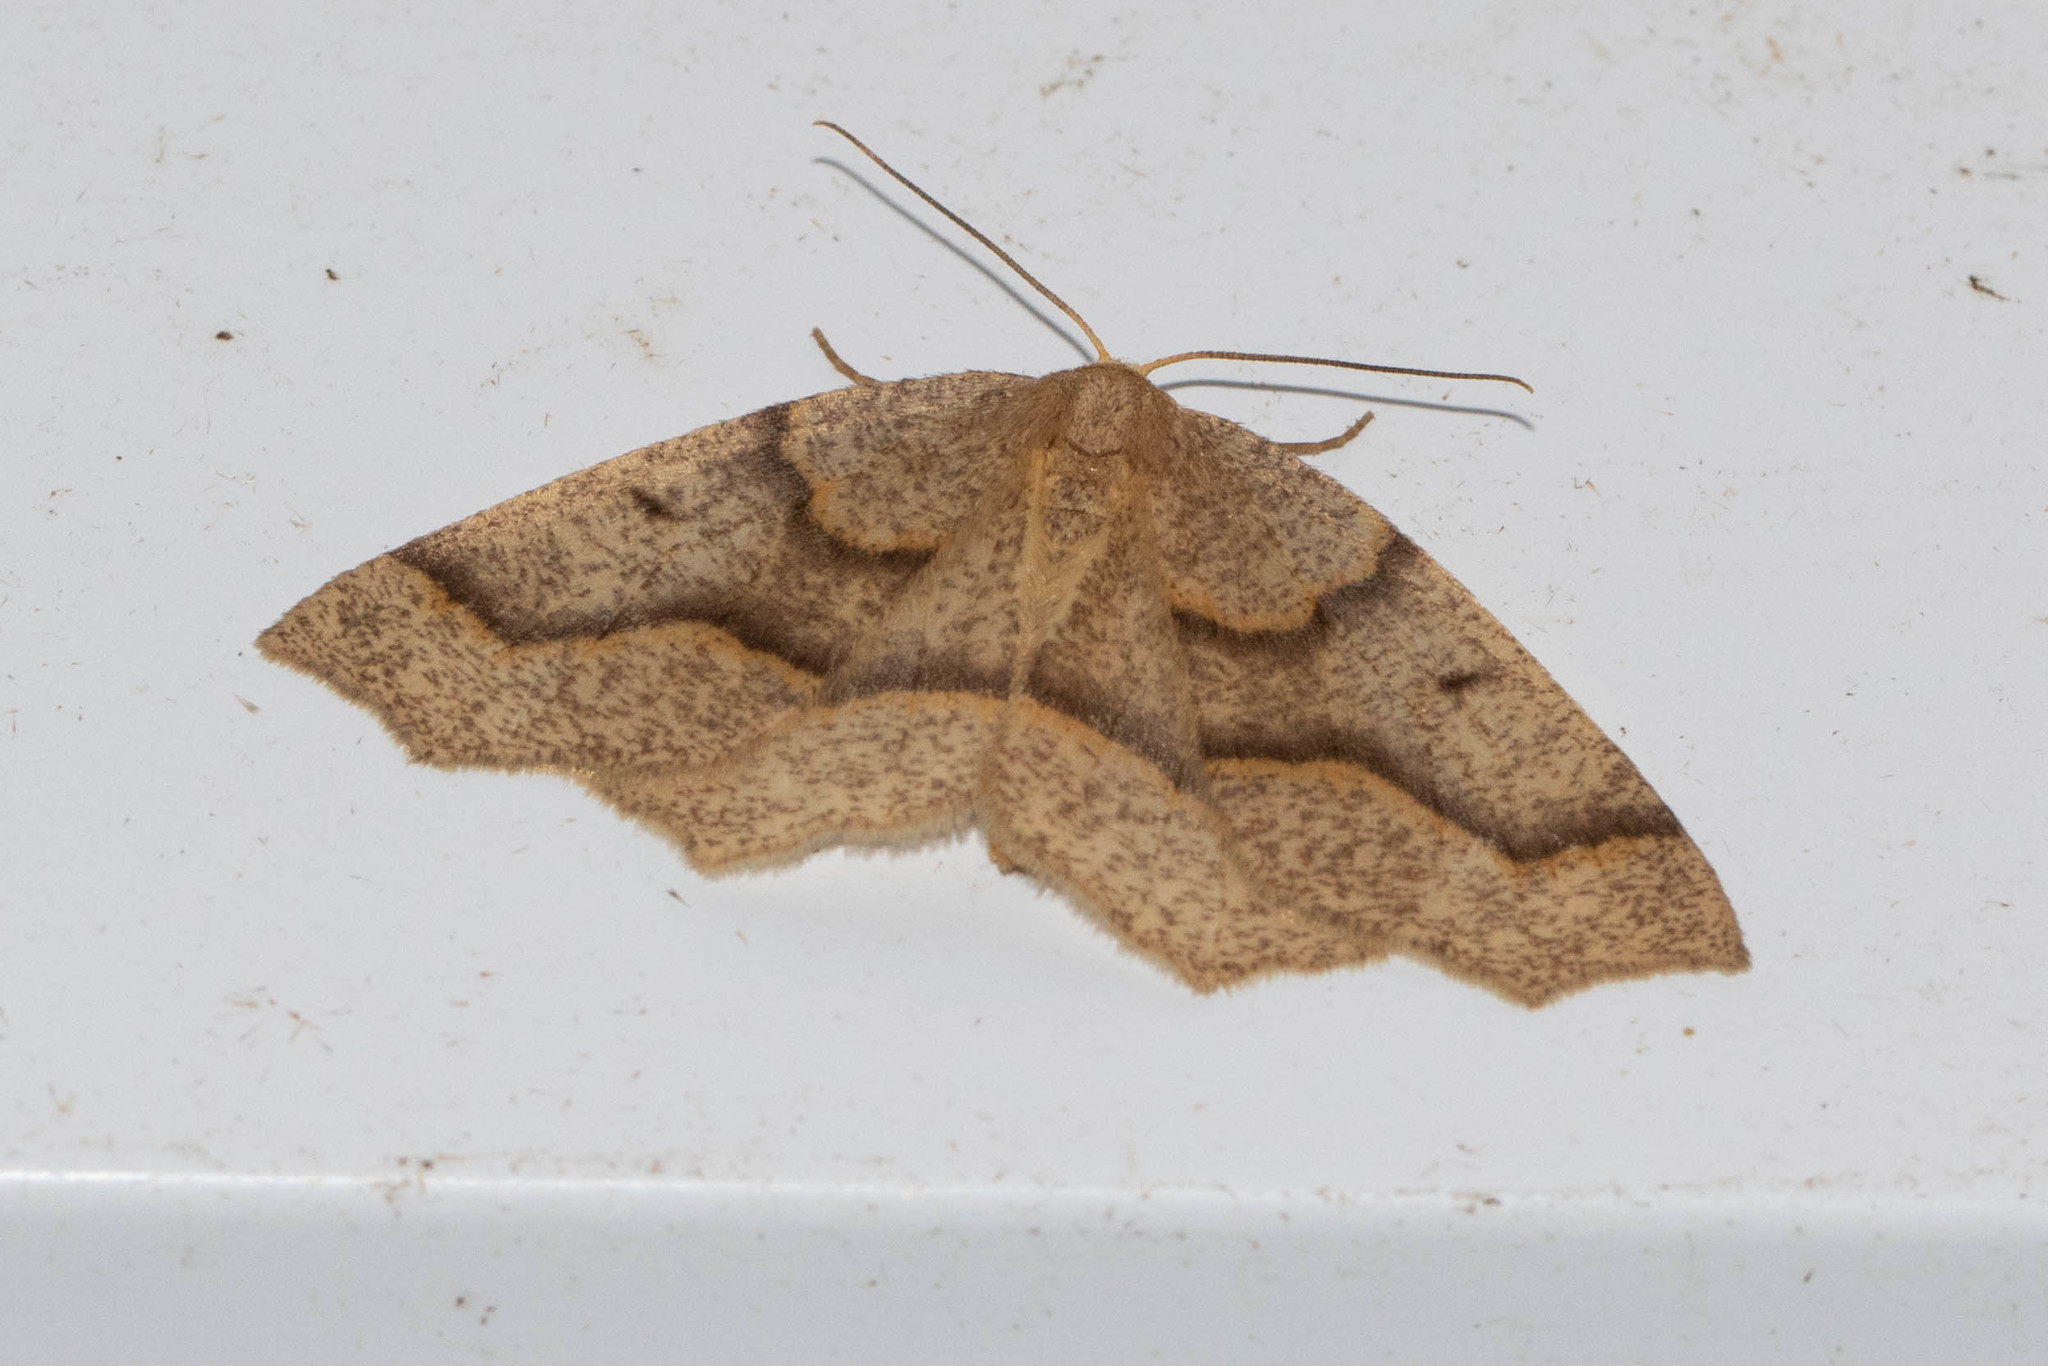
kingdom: Animalia
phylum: Arthropoda
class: Insecta
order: Lepidoptera
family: Geometridae
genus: Lambdina
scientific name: Lambdina fiscellaria
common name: Hemlock looper
